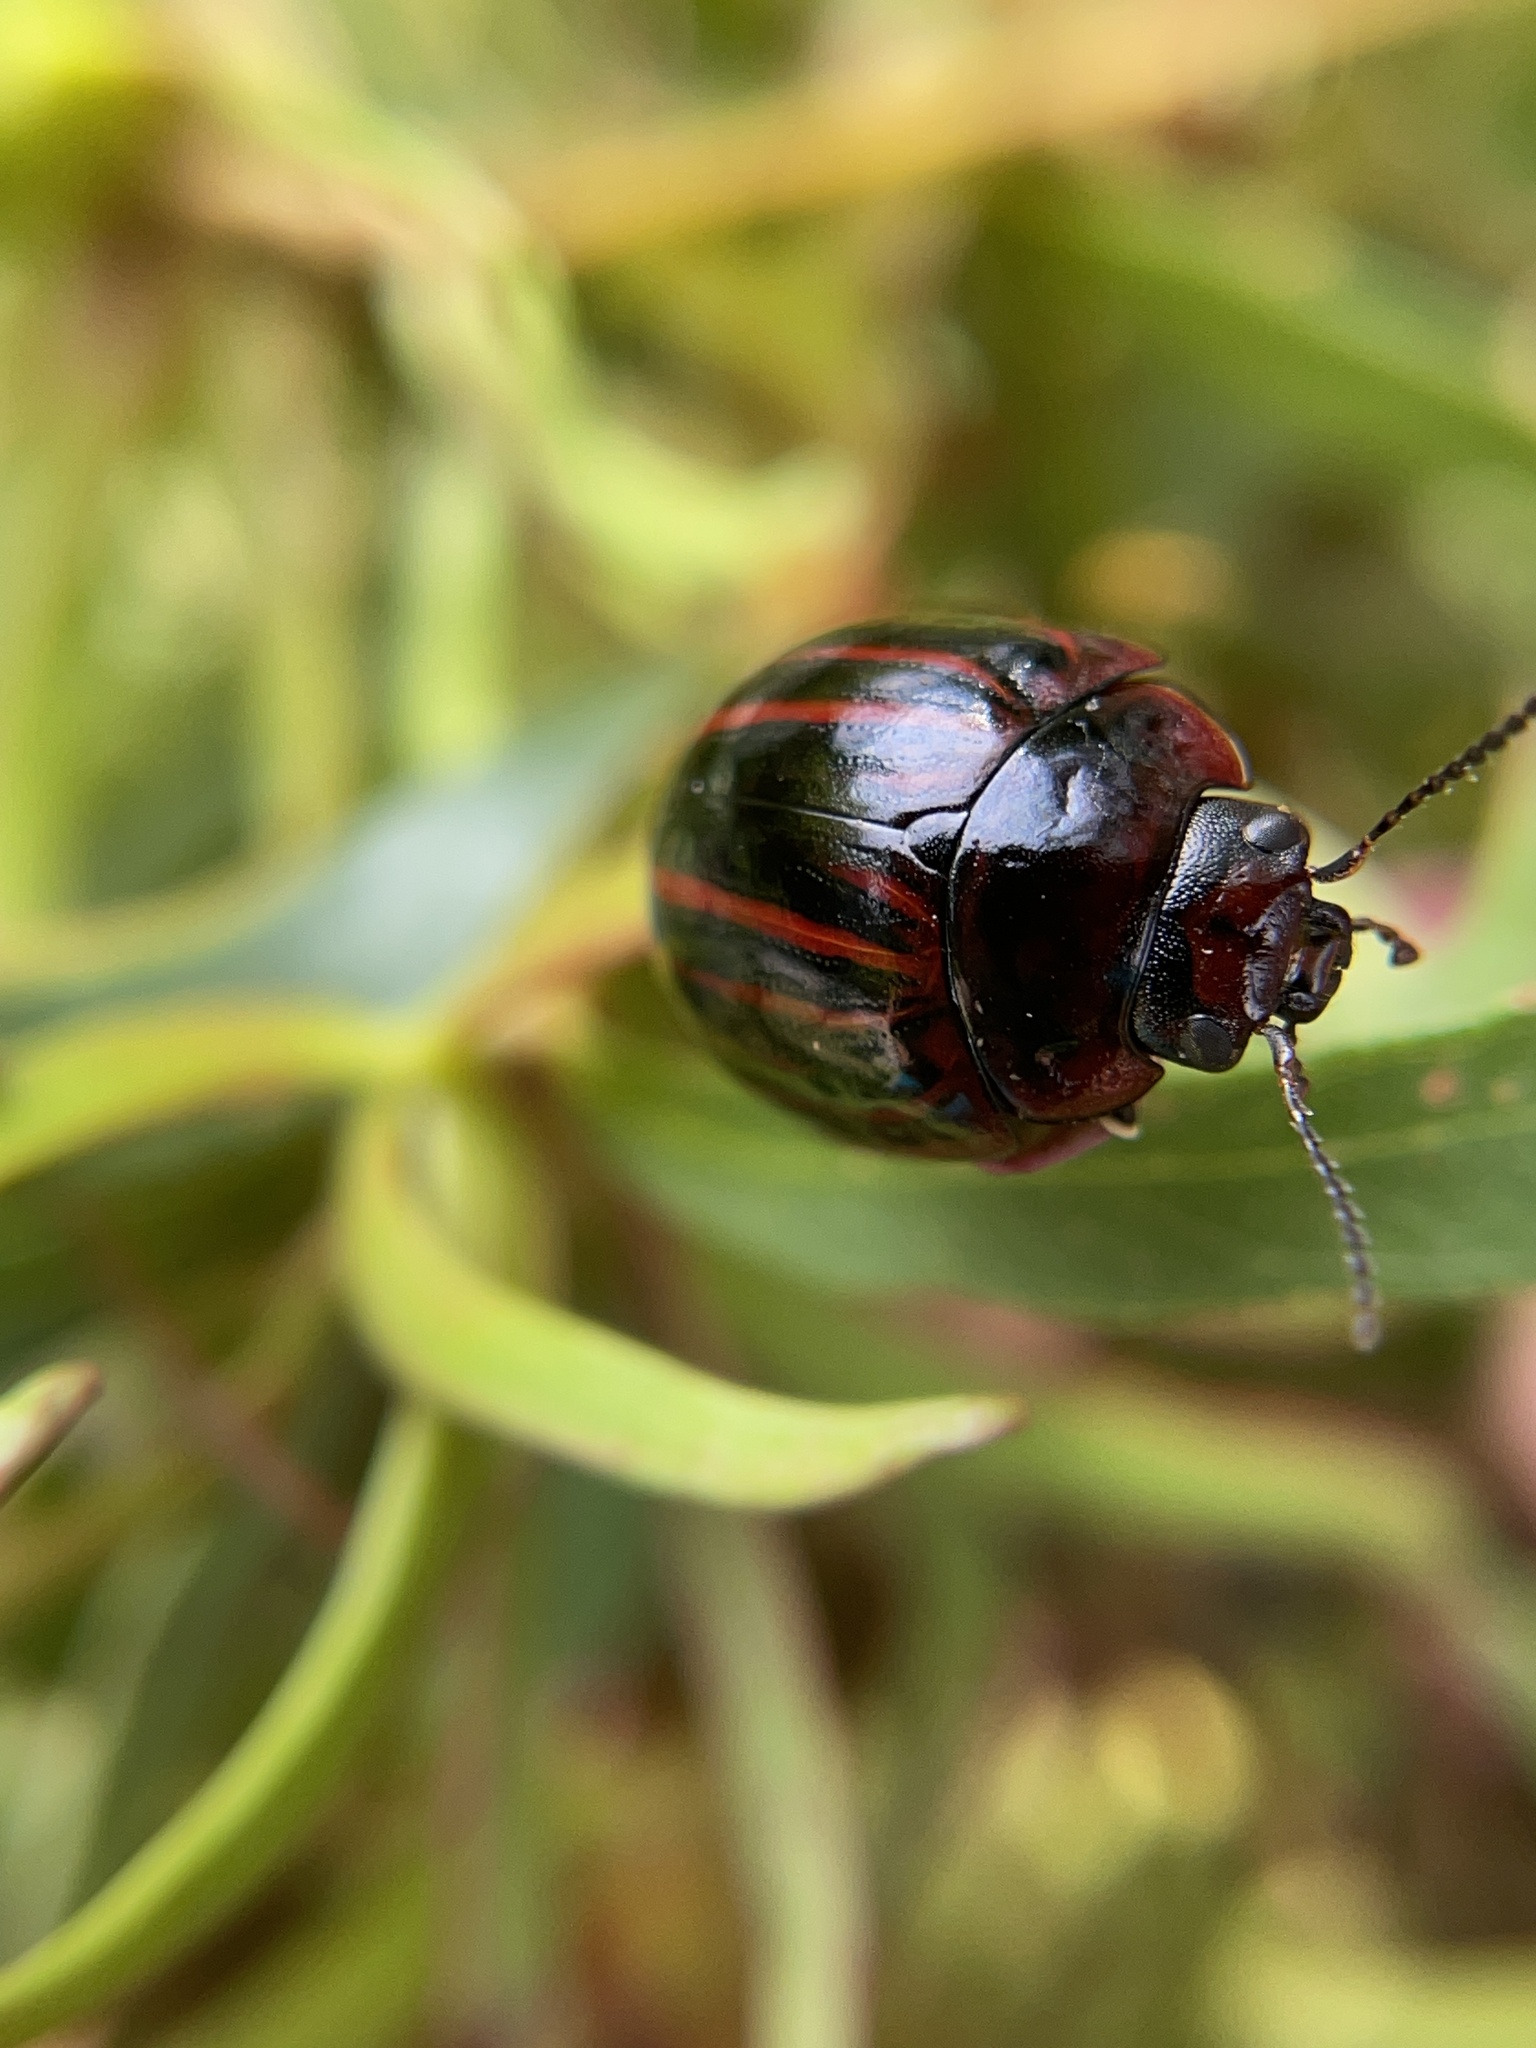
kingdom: Animalia
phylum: Arthropoda
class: Insecta
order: Coleoptera
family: Chrysomelidae
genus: Paropsisterna
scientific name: Paropsisterna
